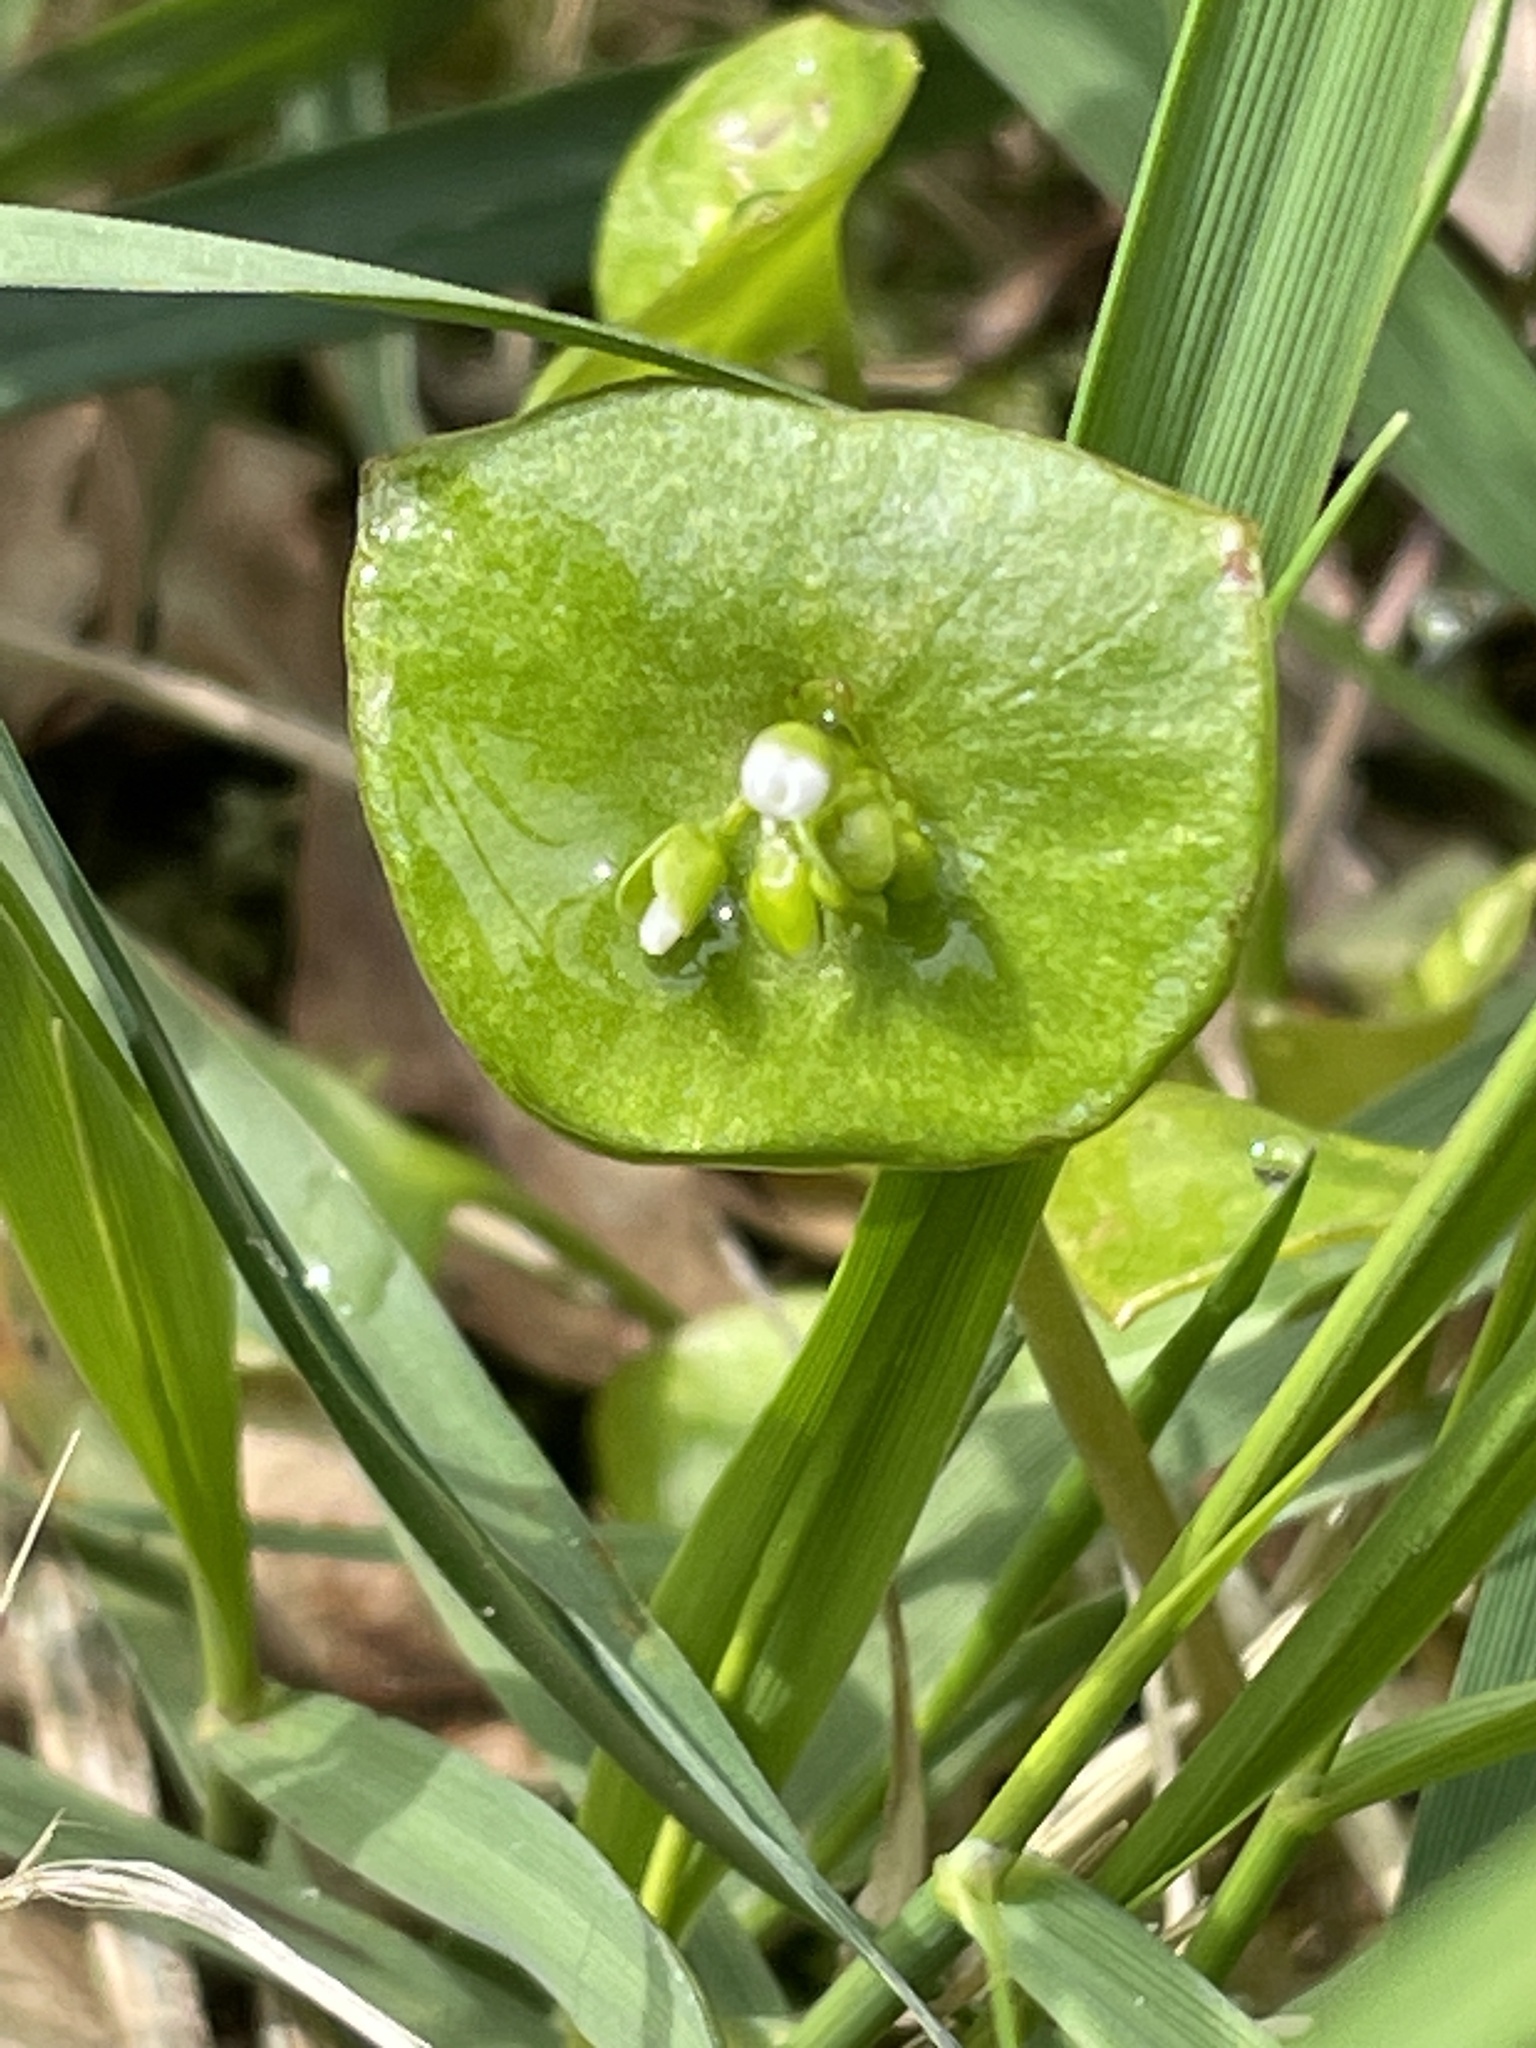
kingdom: Plantae
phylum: Tracheophyta
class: Magnoliopsida
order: Caryophyllales
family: Montiaceae
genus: Claytonia
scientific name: Claytonia perfoliata
